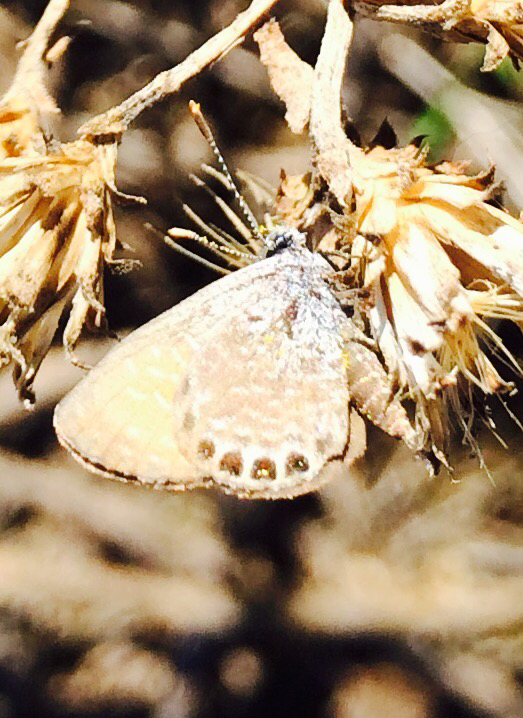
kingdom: Animalia
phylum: Arthropoda
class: Insecta
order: Lepidoptera
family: Lycaenidae
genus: Brephidium
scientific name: Brephidium exilis
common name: Pygmy blue
